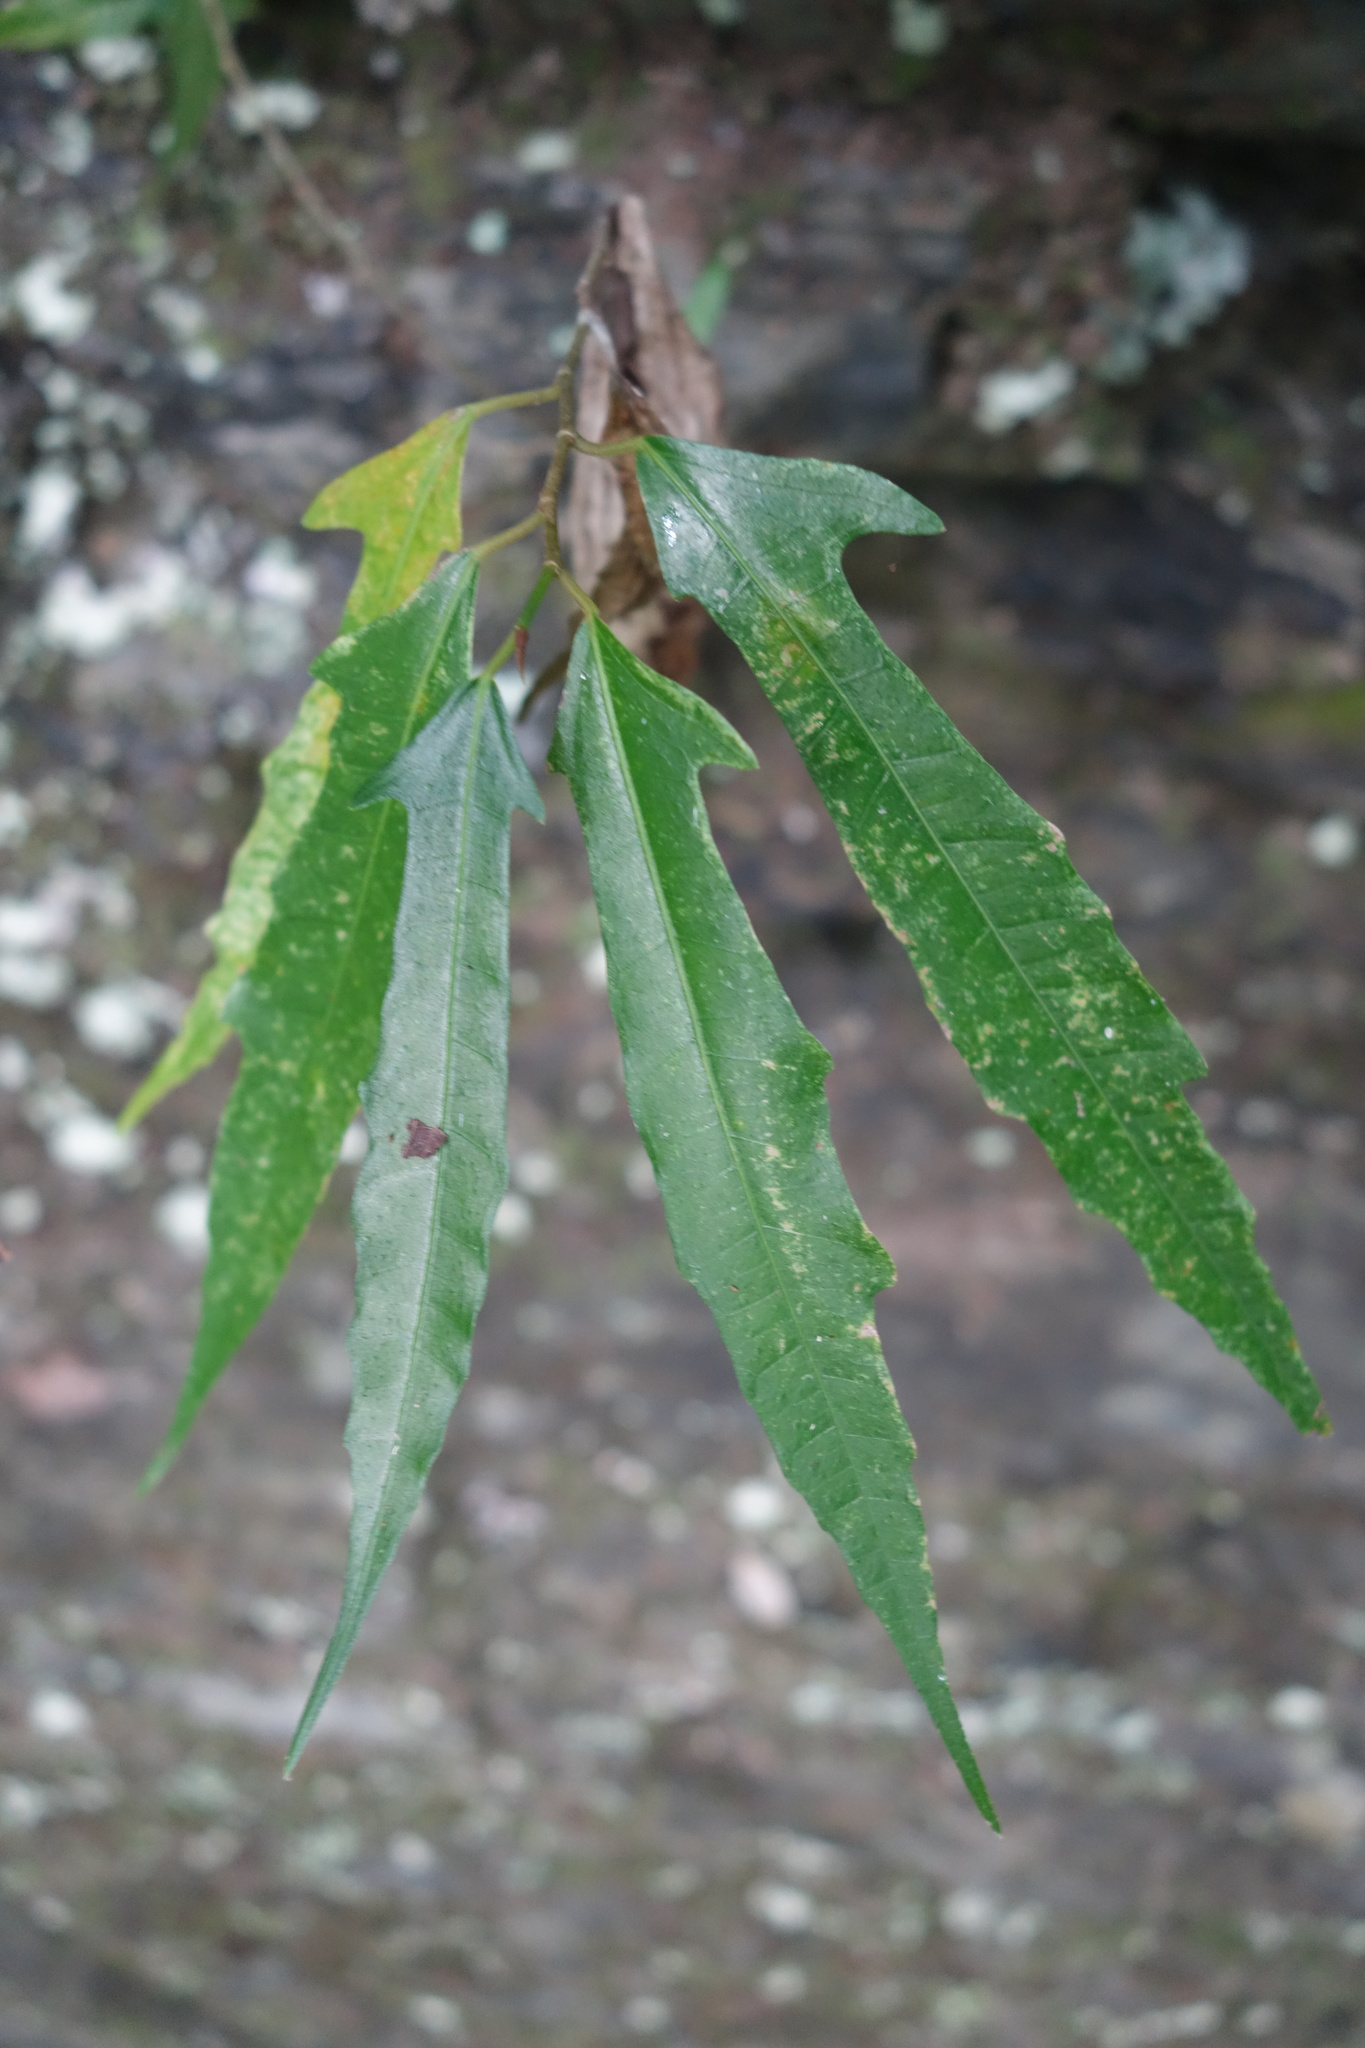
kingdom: Plantae
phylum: Tracheophyta
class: Magnoliopsida
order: Rosales
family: Moraceae
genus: Ficus
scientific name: Ficus ampelos
